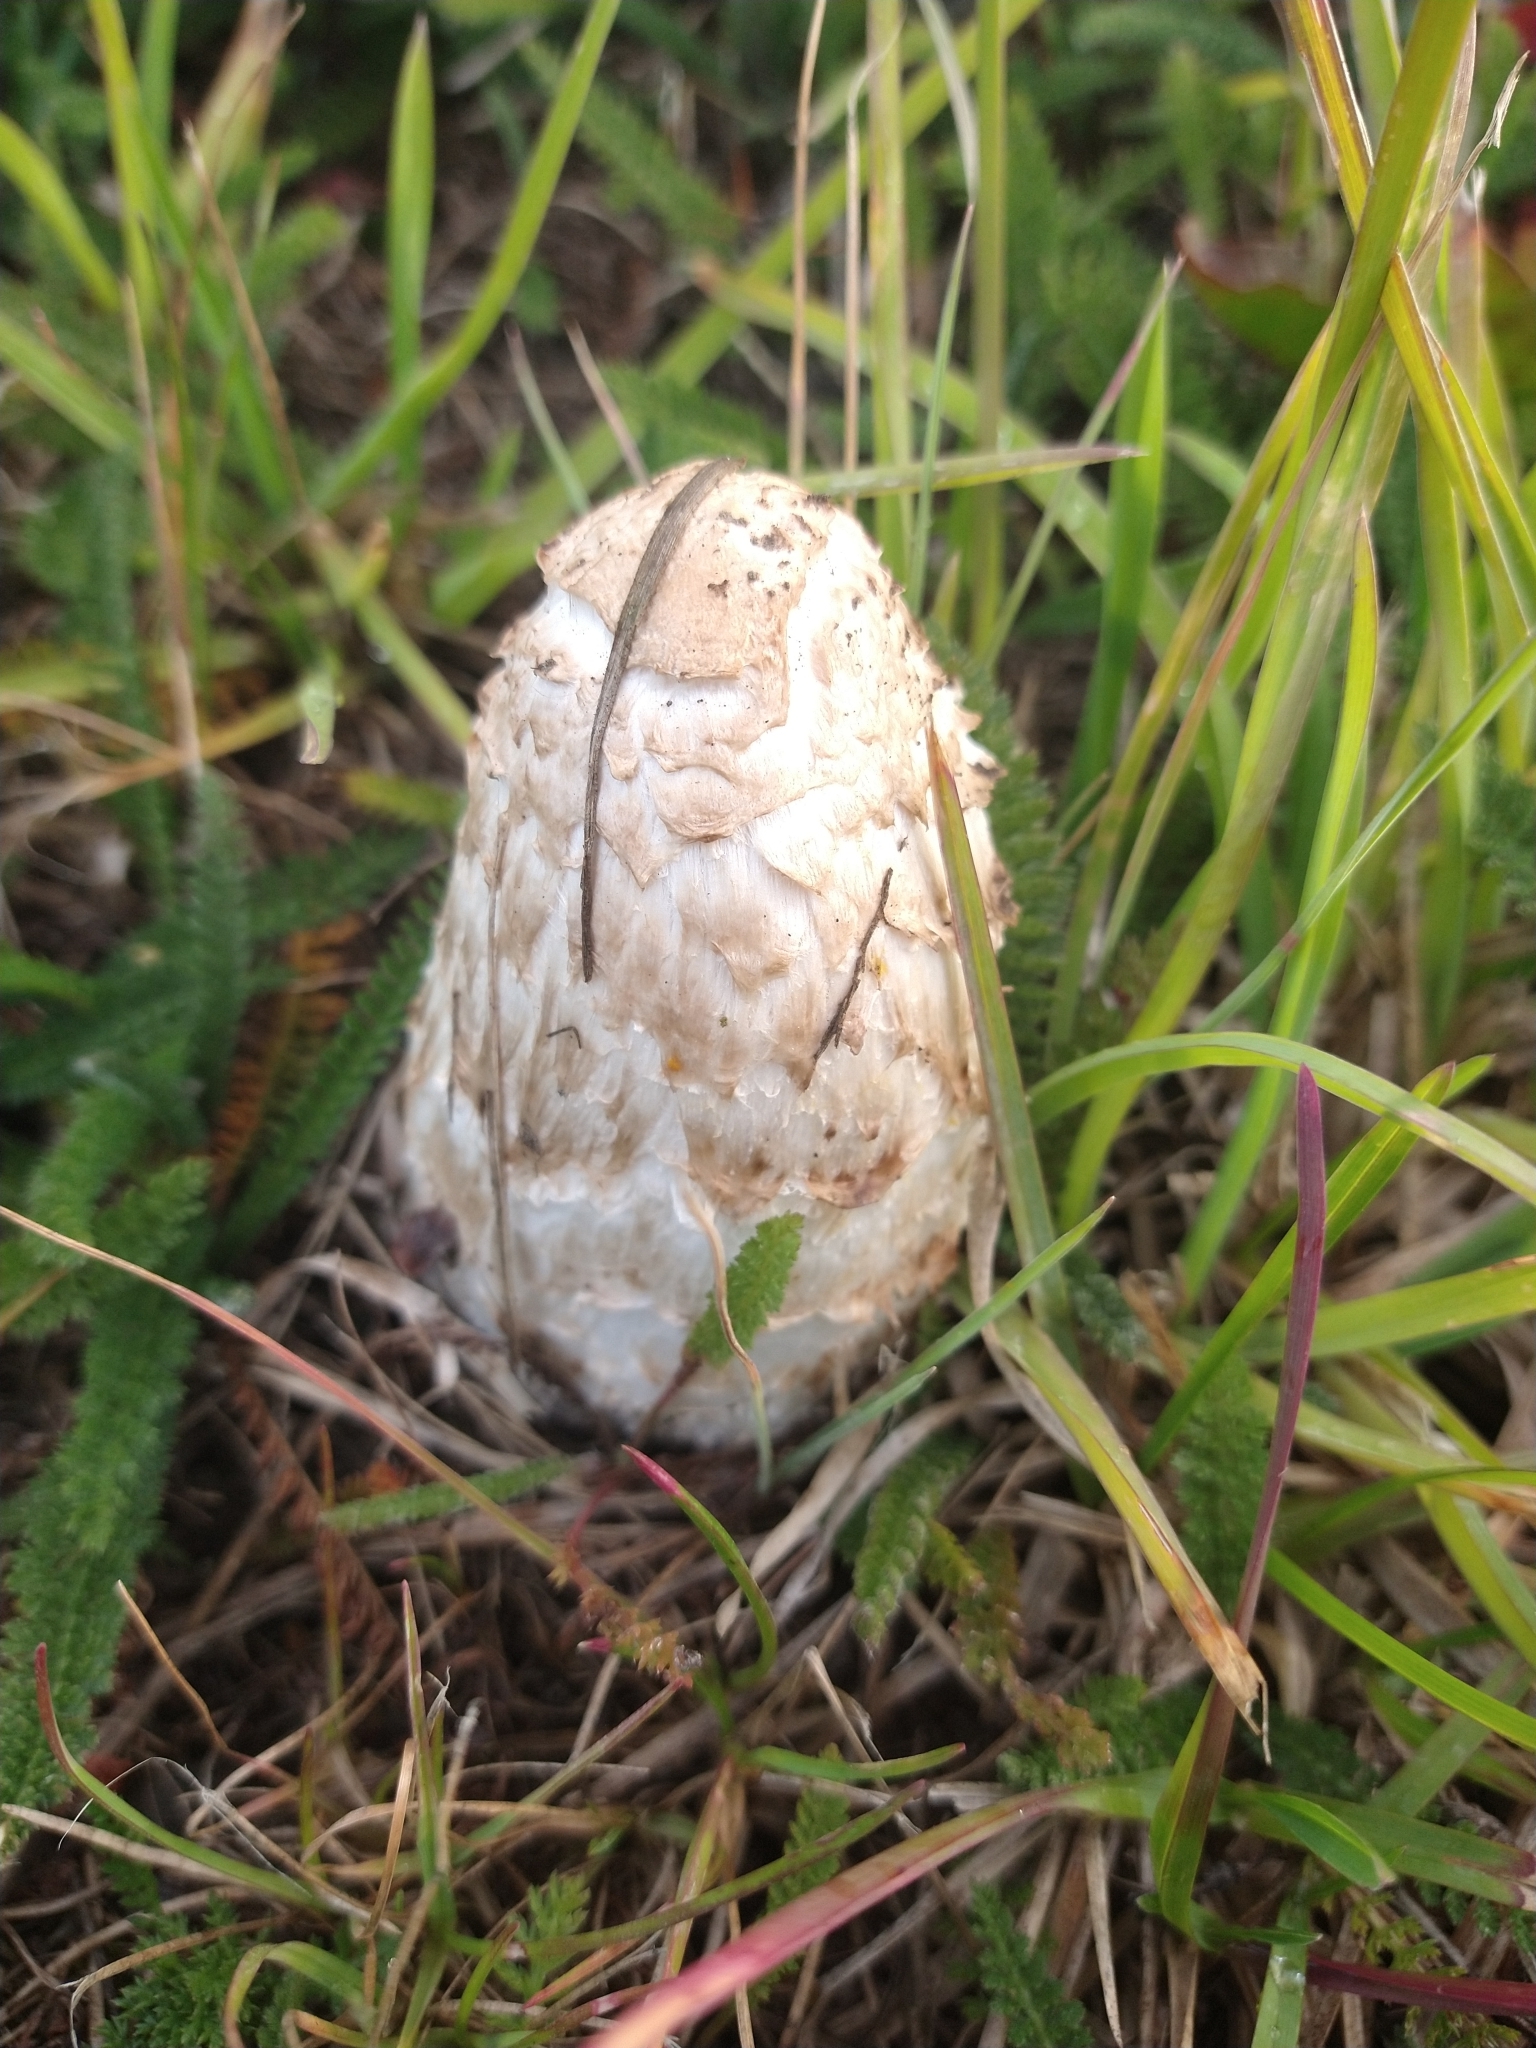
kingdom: Fungi
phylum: Basidiomycota
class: Agaricomycetes
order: Agaricales
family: Agaricaceae
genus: Coprinus
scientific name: Coprinus comatus
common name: Lawyer's wig
